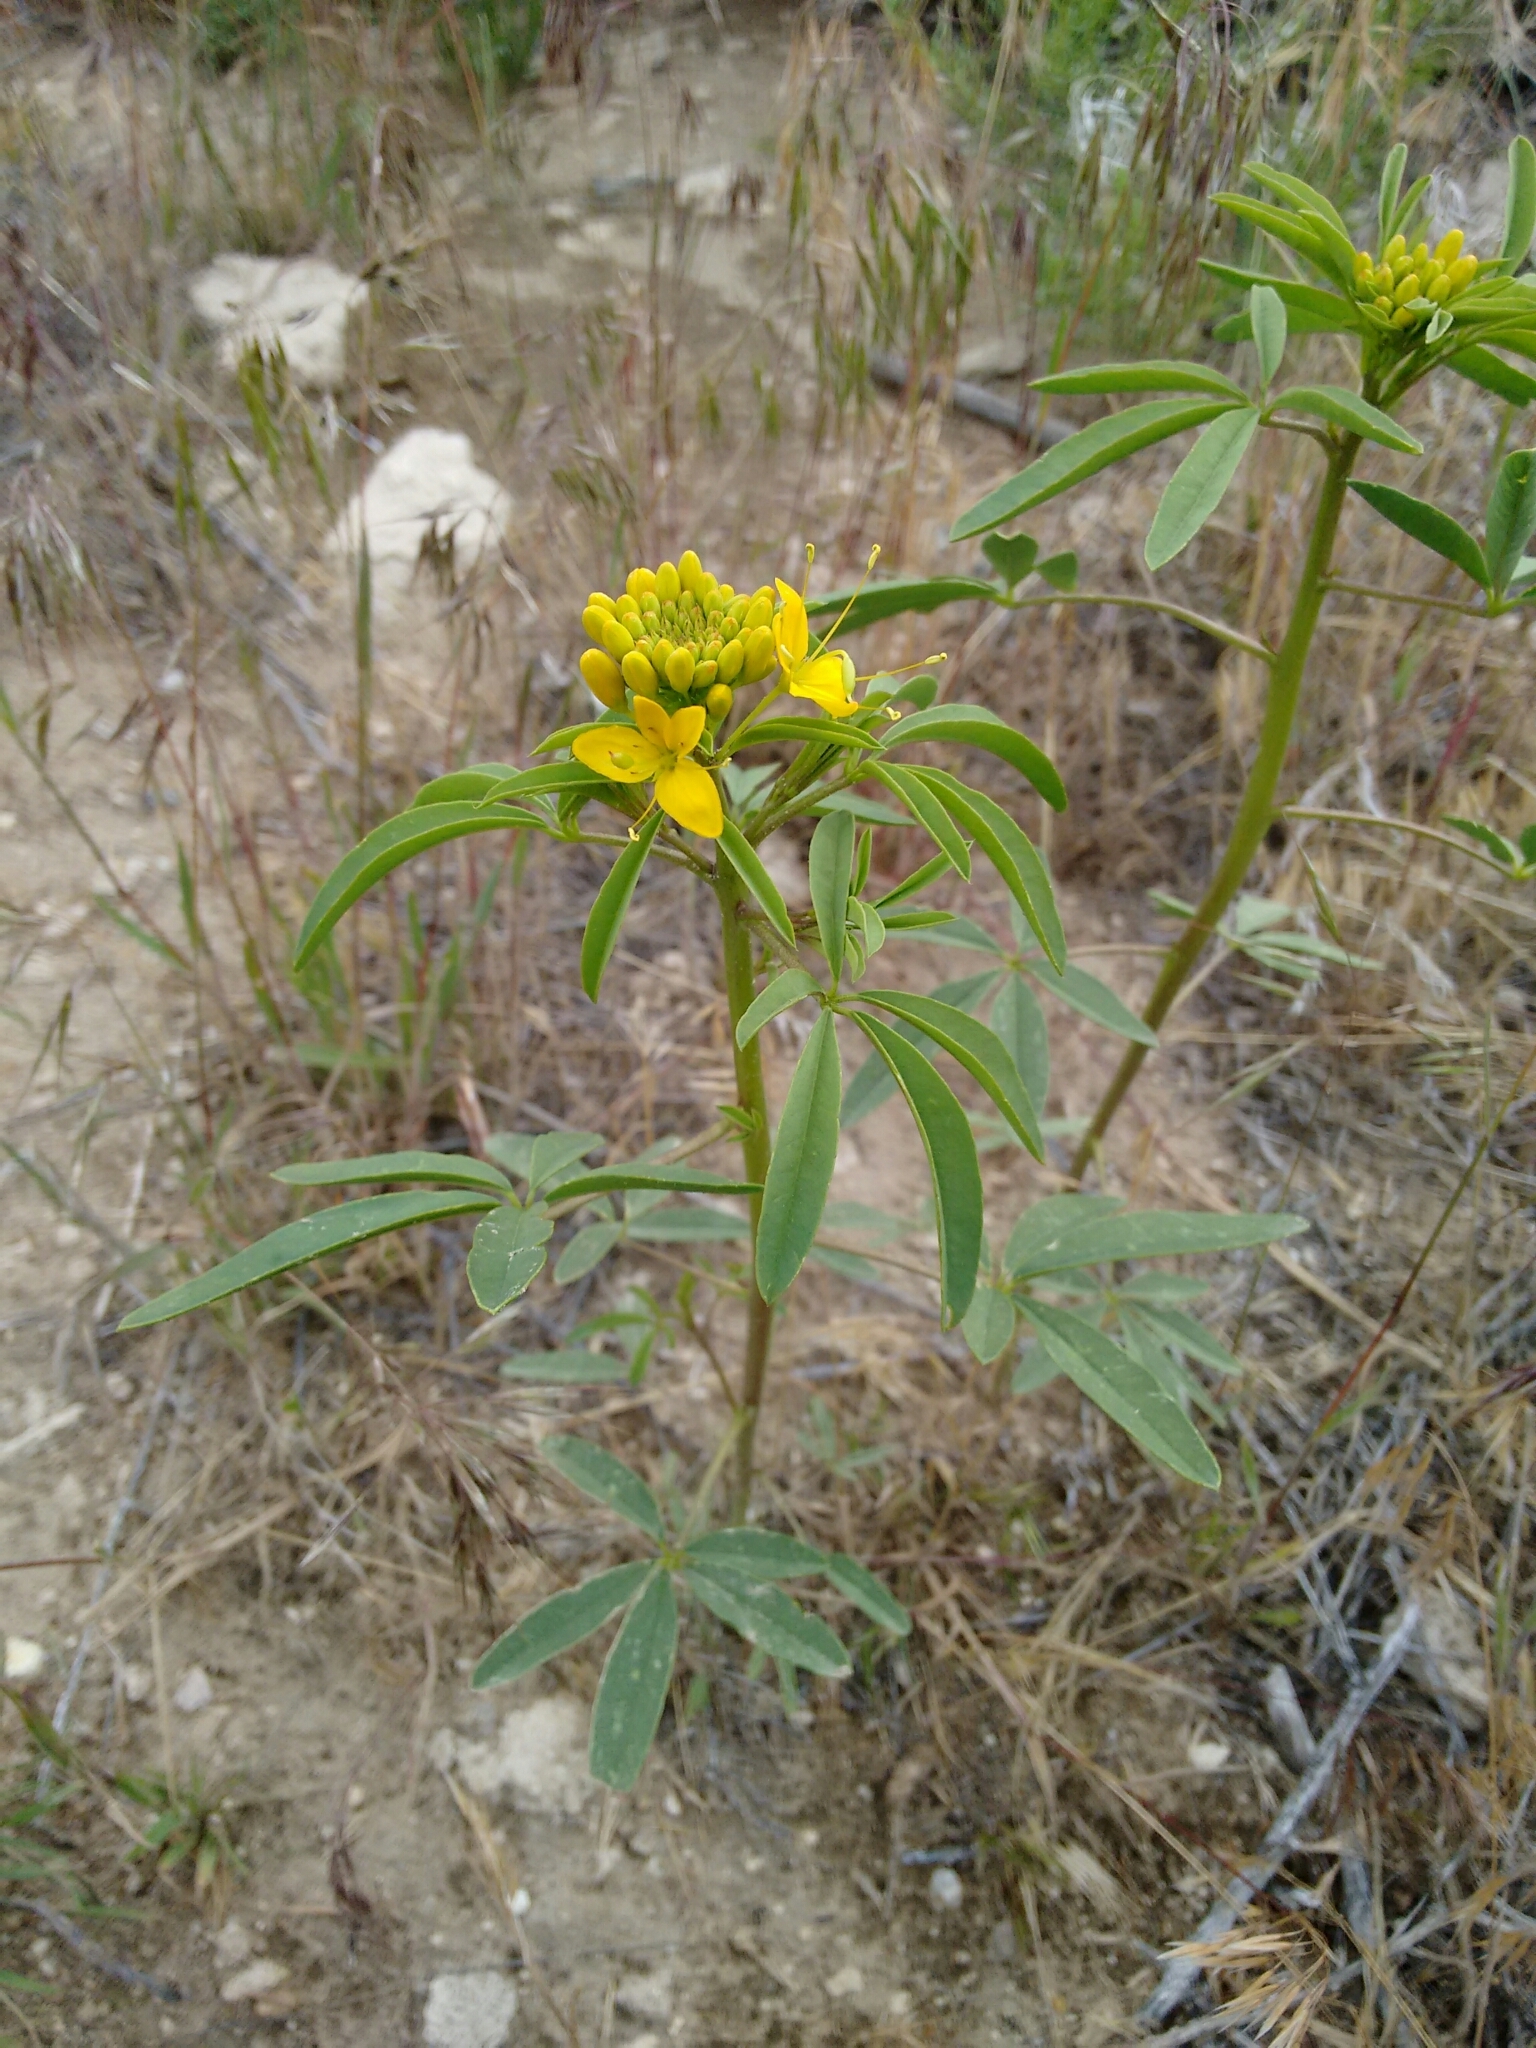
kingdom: Plantae
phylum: Tracheophyta
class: Magnoliopsida
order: Brassicales
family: Cleomaceae
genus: Cleomella
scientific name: Cleomella lutea
